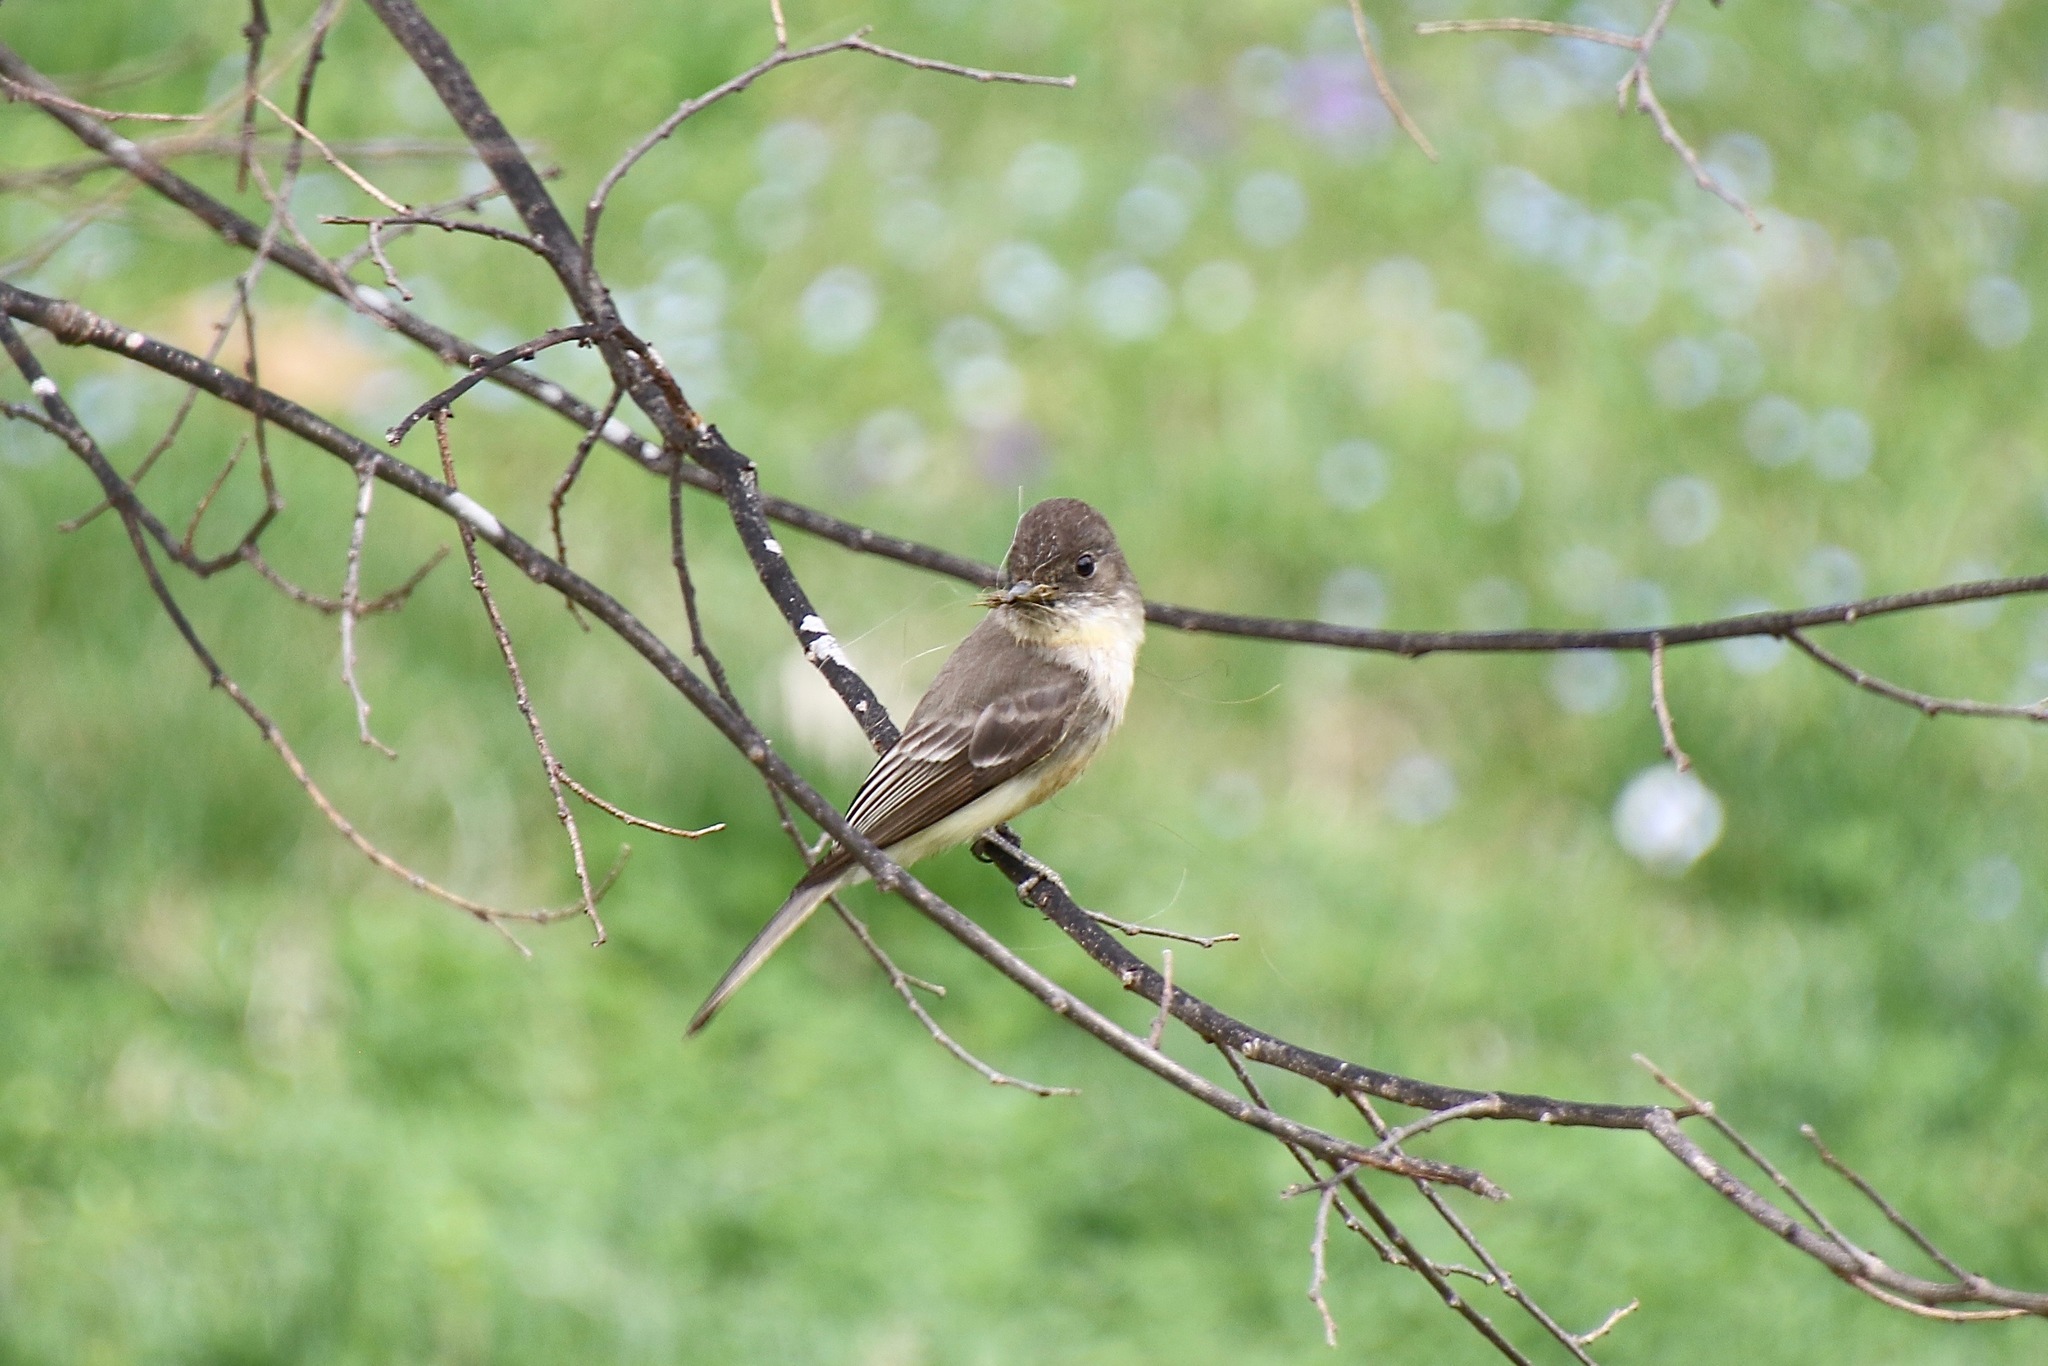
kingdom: Animalia
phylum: Chordata
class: Aves
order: Passeriformes
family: Tyrannidae
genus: Sayornis
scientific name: Sayornis phoebe
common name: Eastern phoebe
